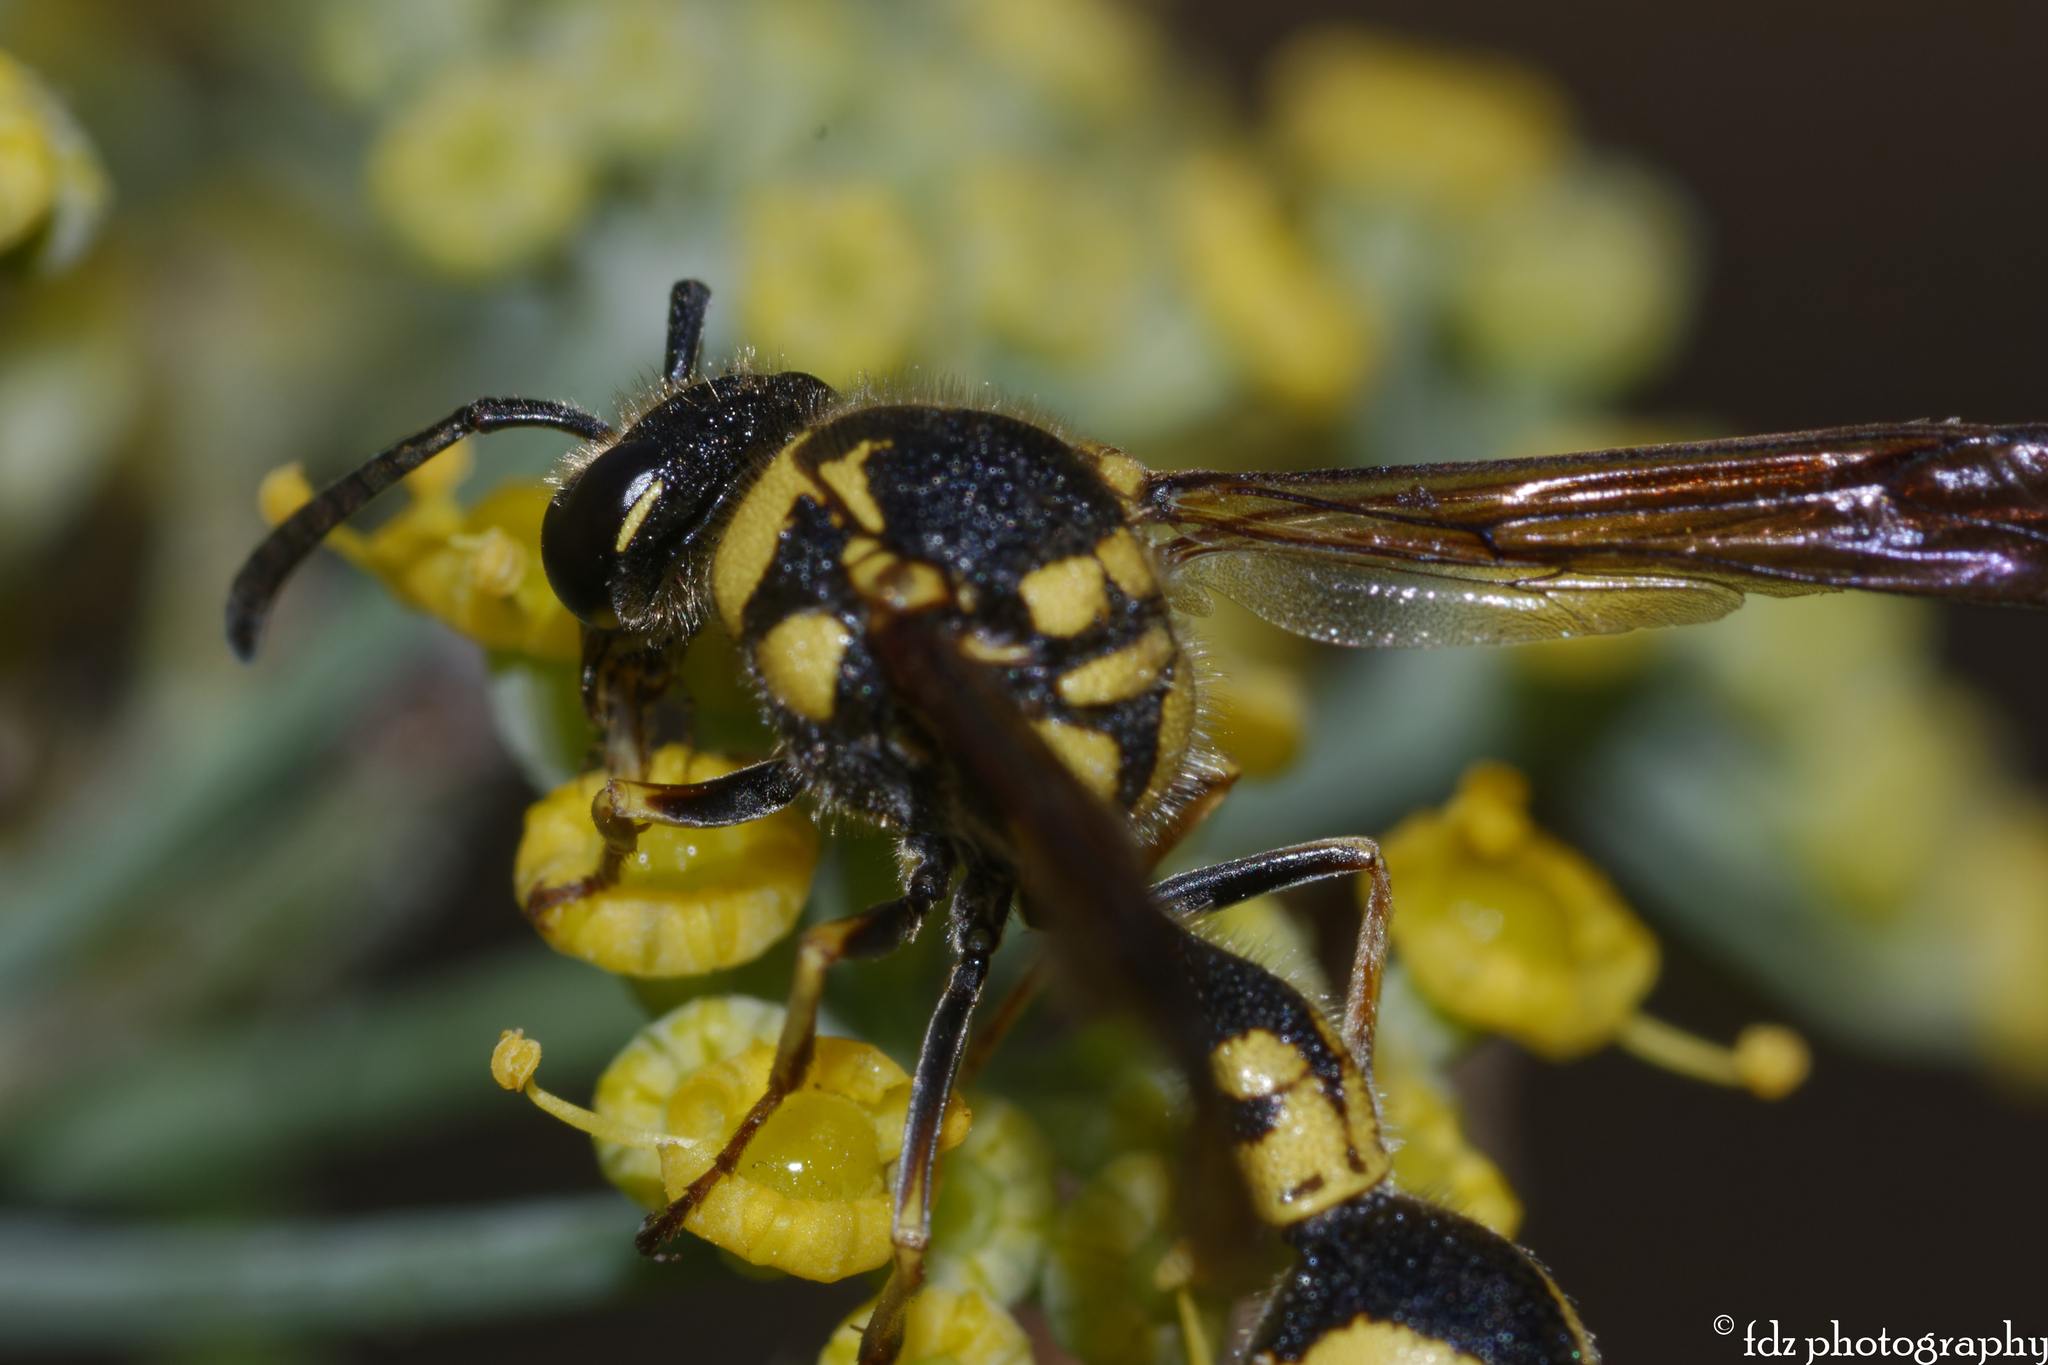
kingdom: Animalia
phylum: Arthropoda
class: Insecta
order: Hymenoptera
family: Vespidae
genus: Eumenes
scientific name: Eumenes coronatus
